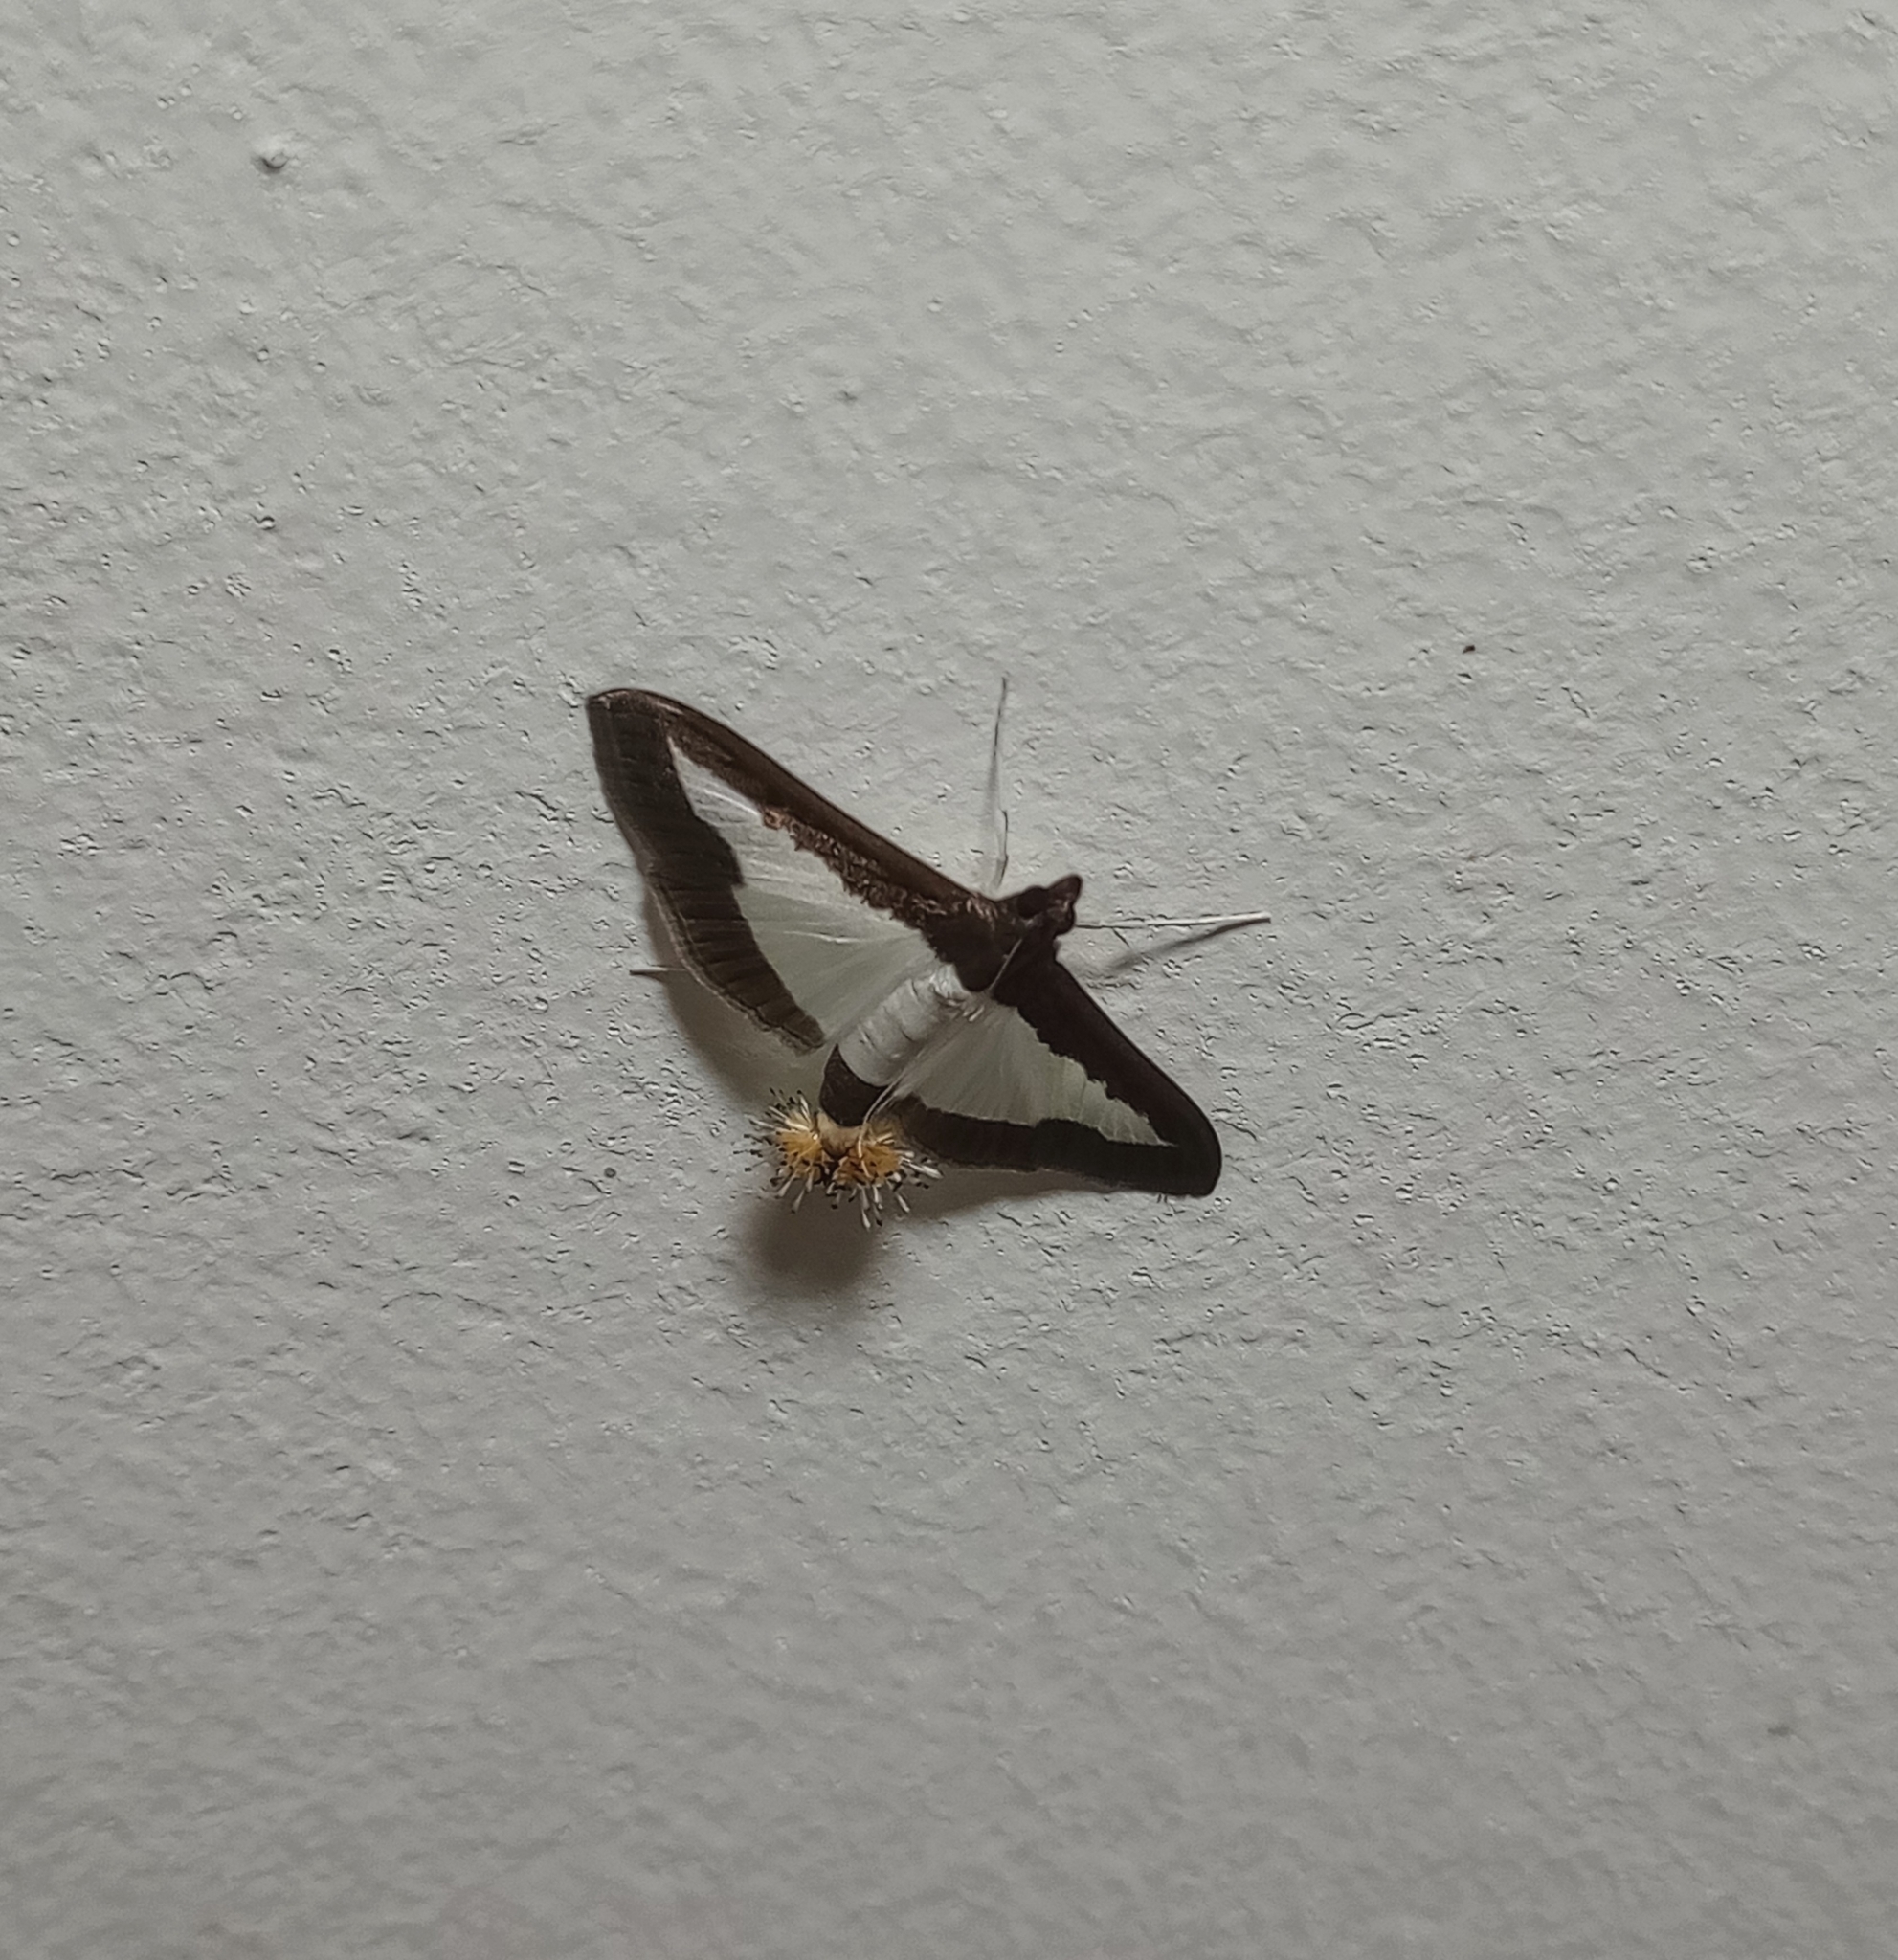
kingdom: Animalia
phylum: Arthropoda
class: Insecta
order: Lepidoptera
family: Crambidae
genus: Diaphania
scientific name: Diaphania indica
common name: Cucumber moth
